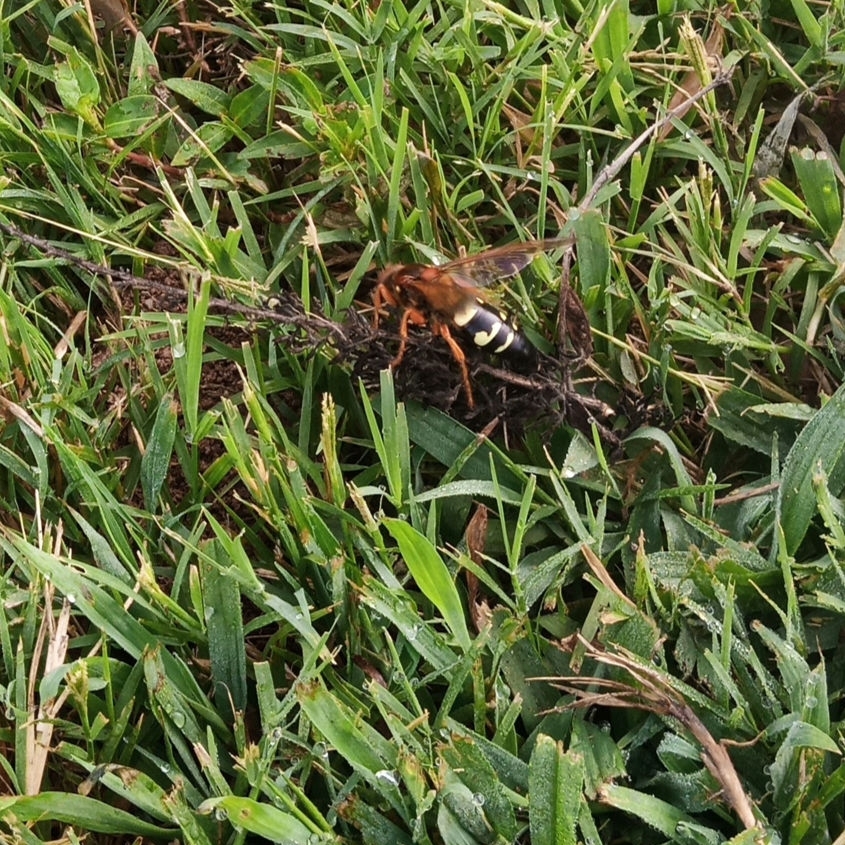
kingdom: Animalia
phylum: Arthropoda
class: Insecta
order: Hymenoptera
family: Crabronidae
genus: Sphecius
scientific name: Sphecius speciosus
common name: Cicada killer
